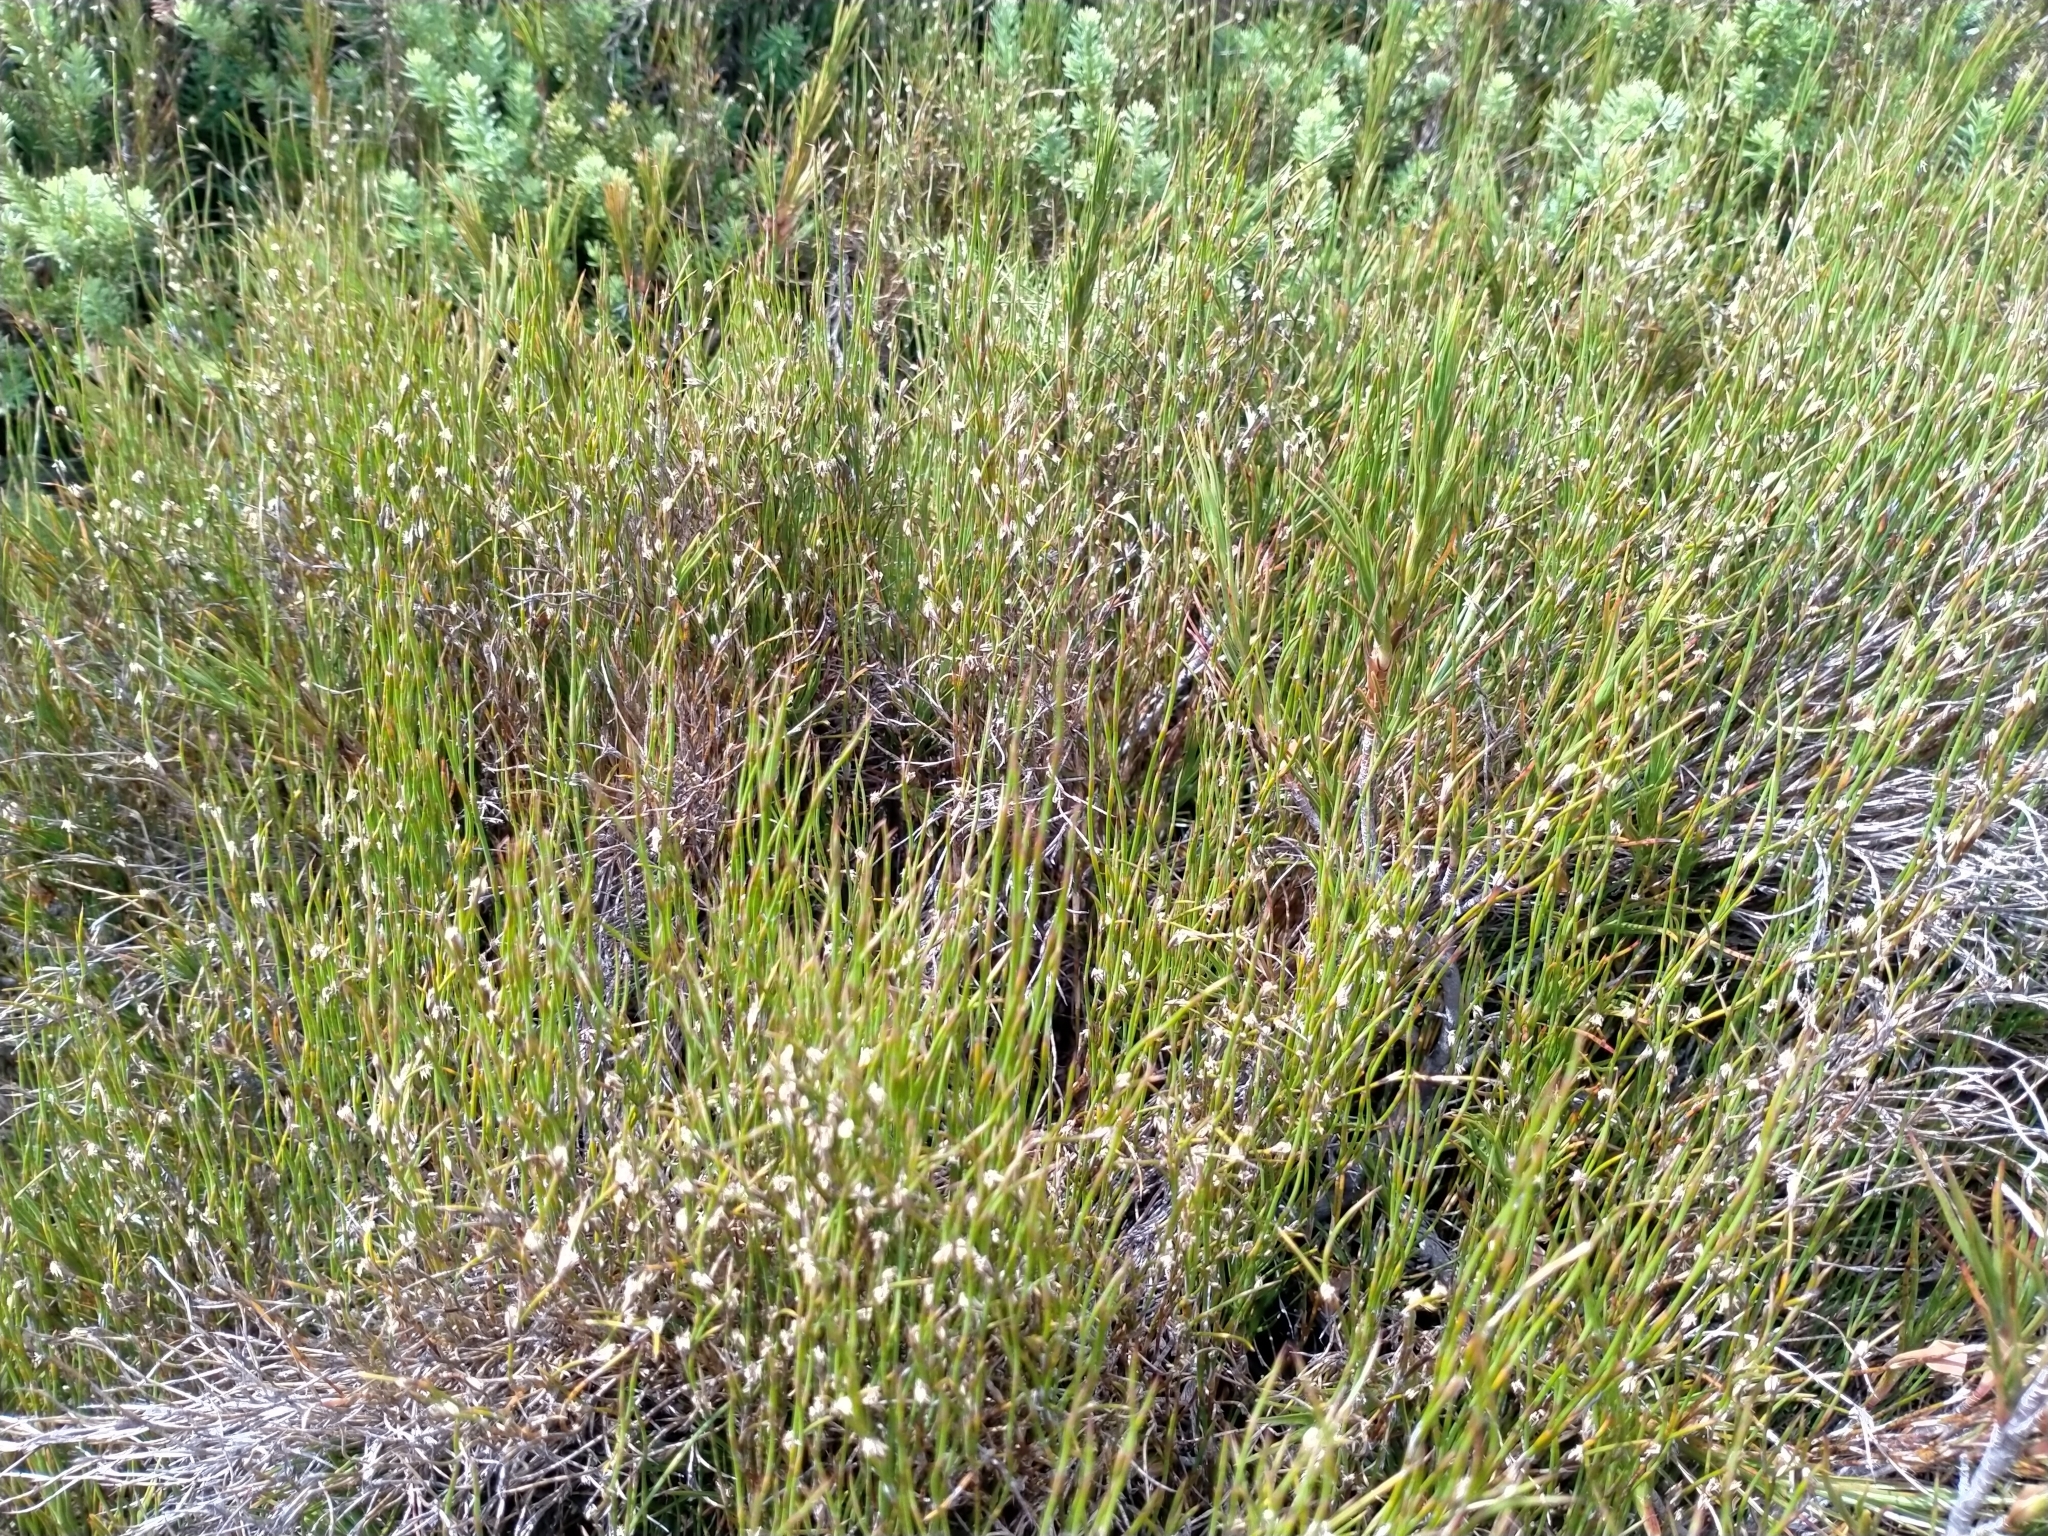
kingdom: Plantae
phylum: Tracheophyta
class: Liliopsida
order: Poales
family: Restionaceae
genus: Empodisma
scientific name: Empodisma minus
